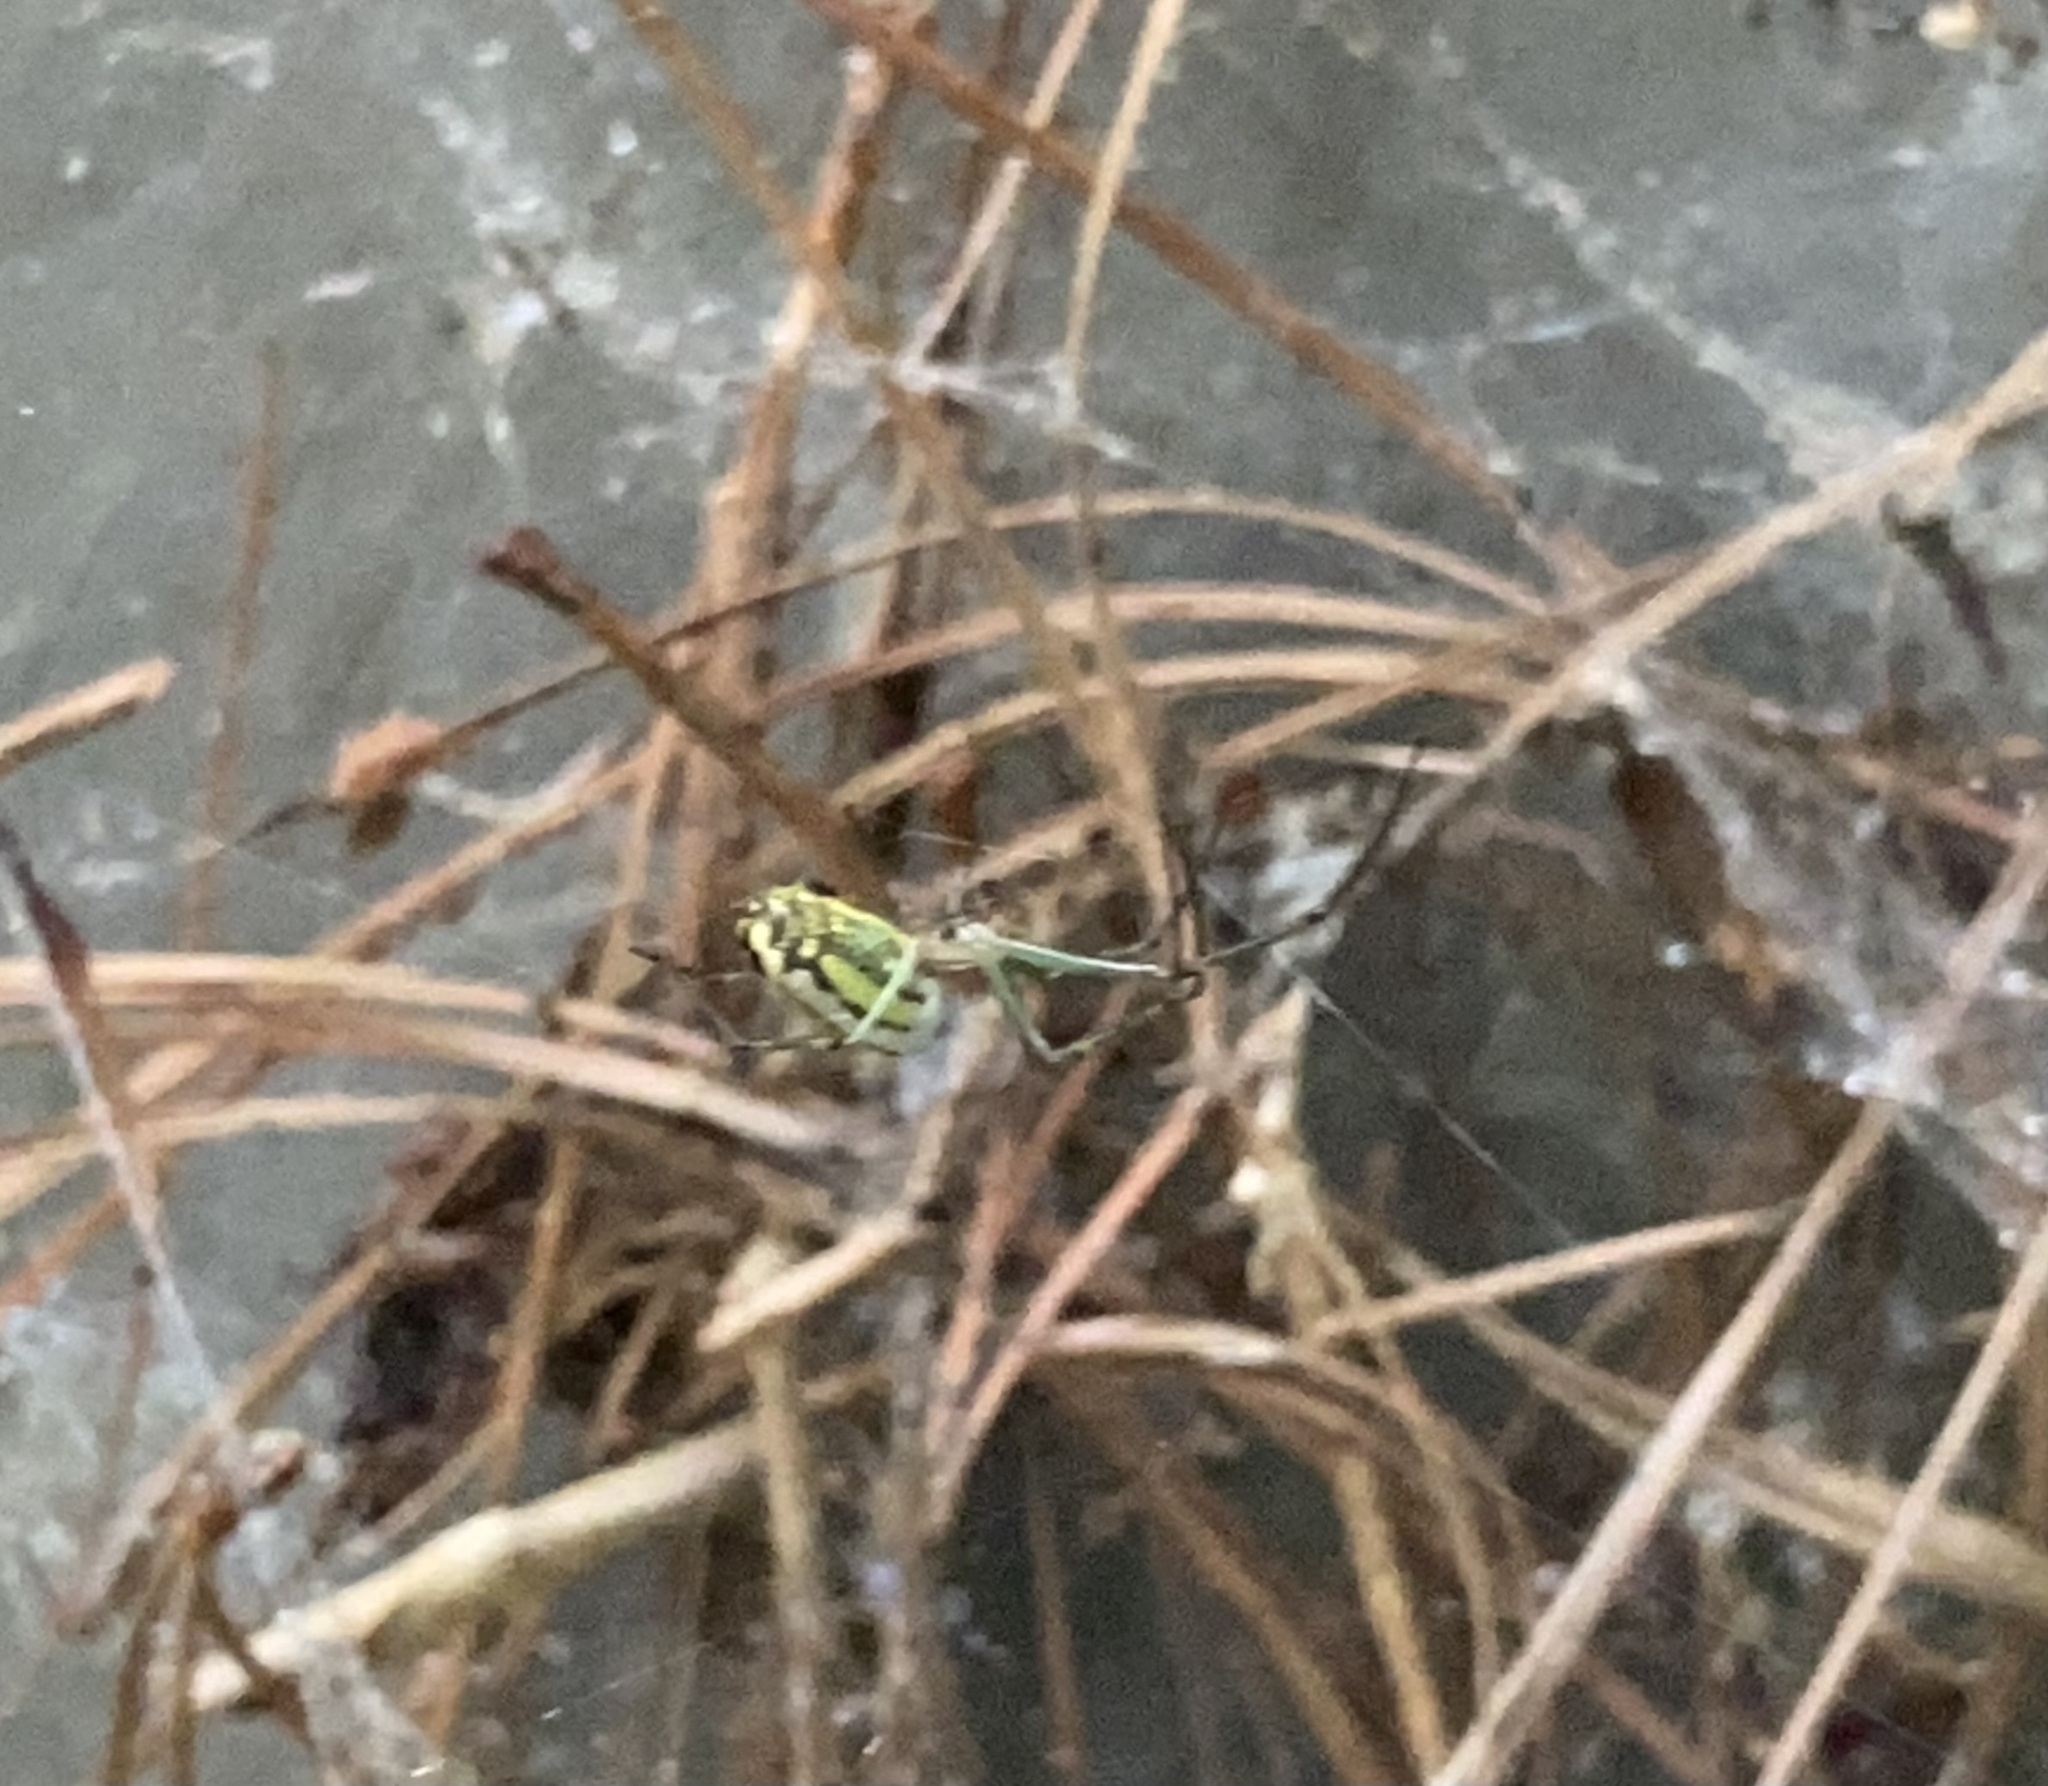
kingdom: Animalia
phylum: Arthropoda
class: Arachnida
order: Araneae
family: Tetragnathidae
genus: Leucauge
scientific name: Leucauge venusta
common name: Longjawed orb weavers
